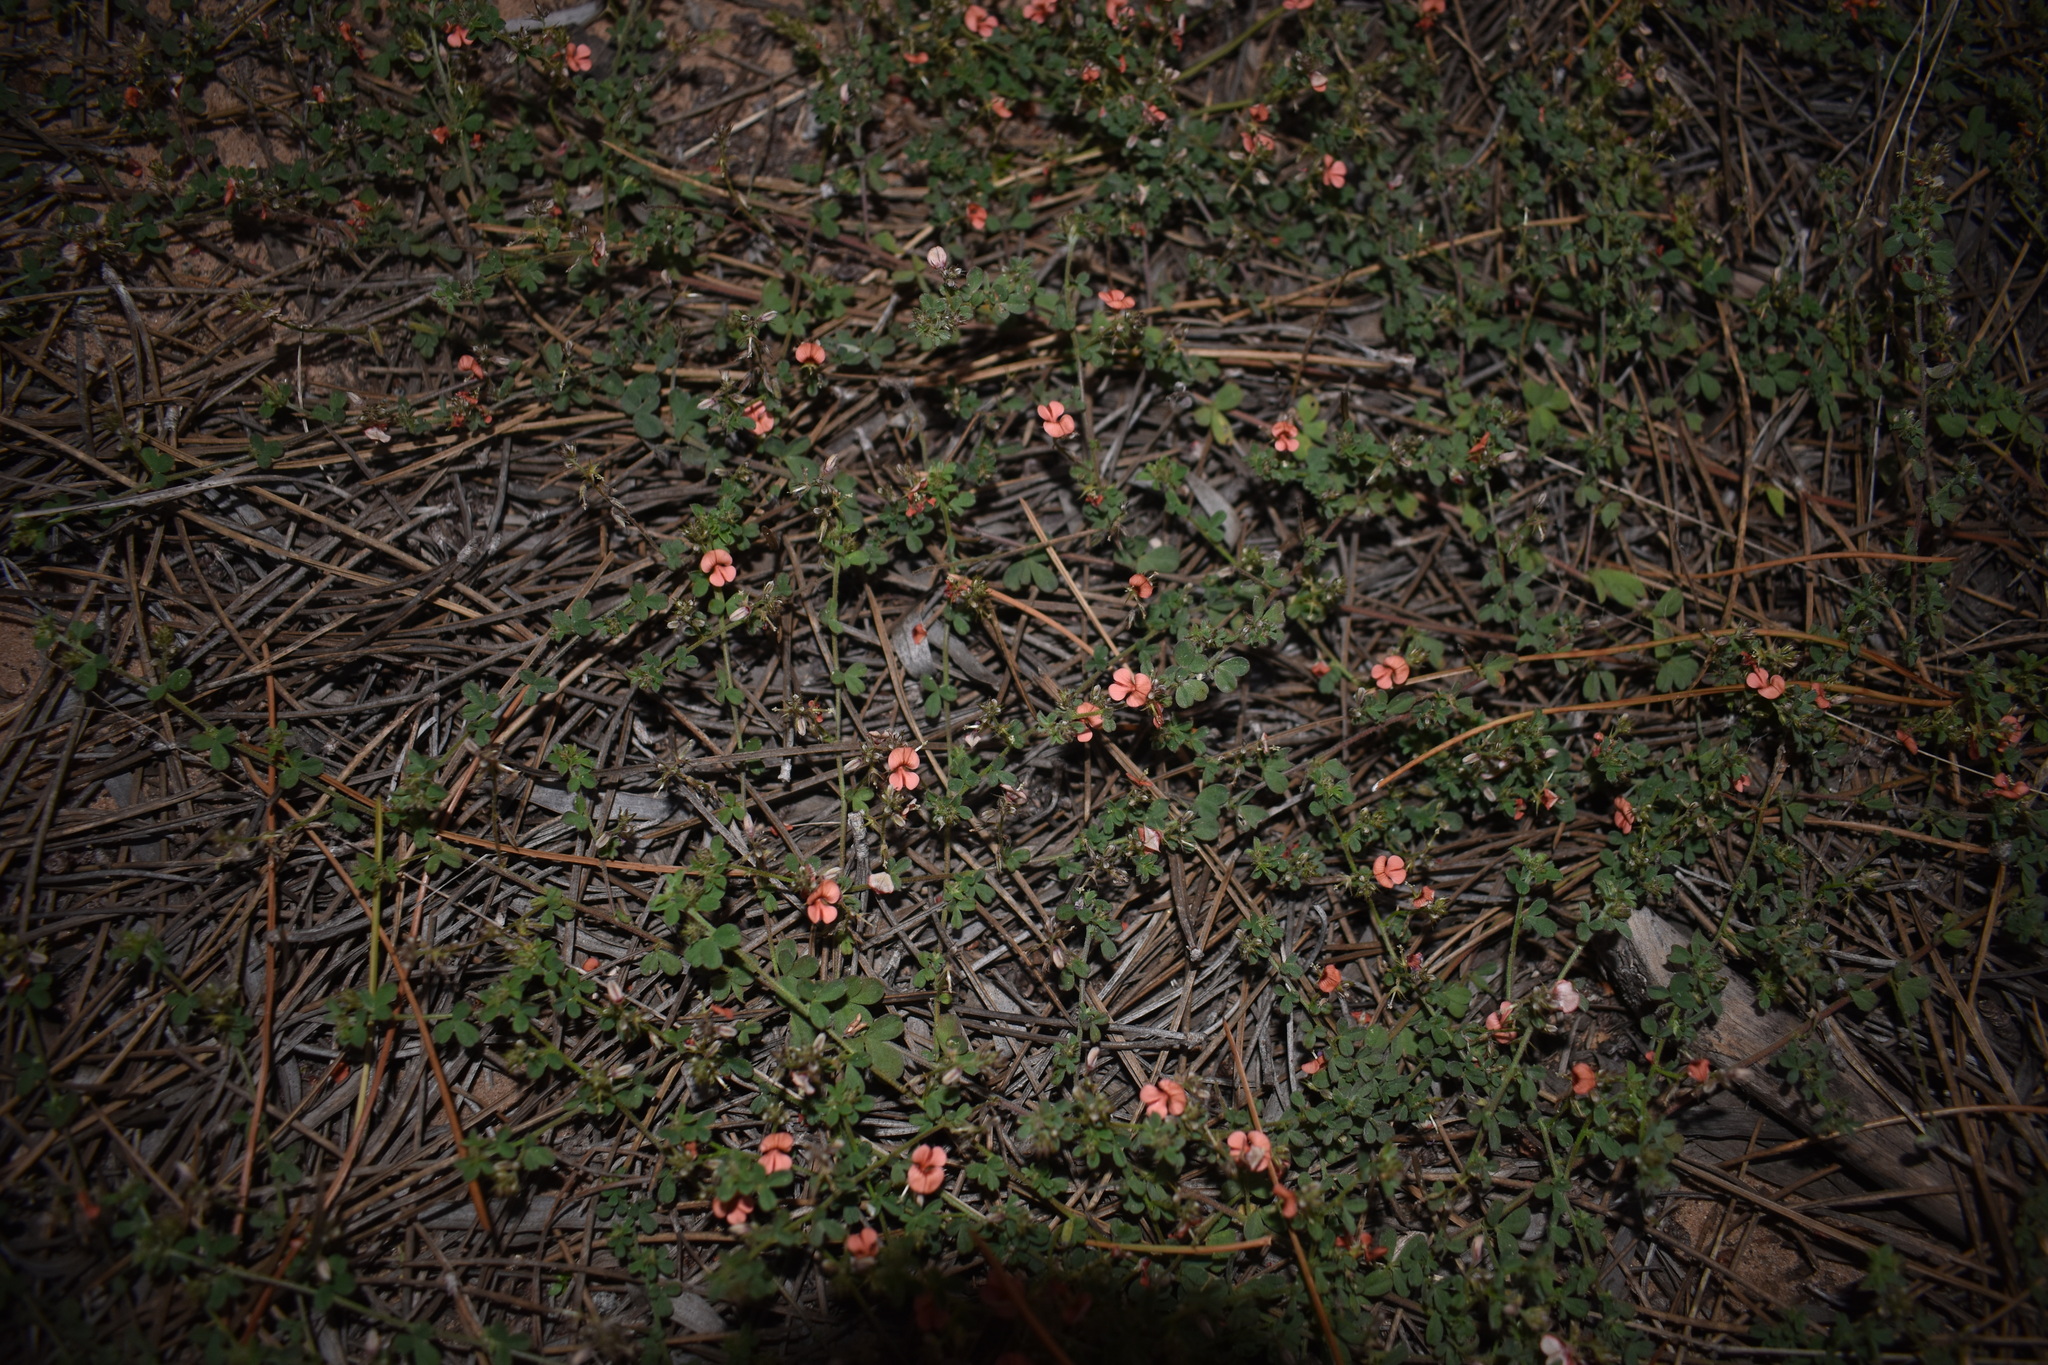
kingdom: Plantae
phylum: Tracheophyta
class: Magnoliopsida
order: Fabales
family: Fabaceae
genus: Indigofera
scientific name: Indigofera priorii
